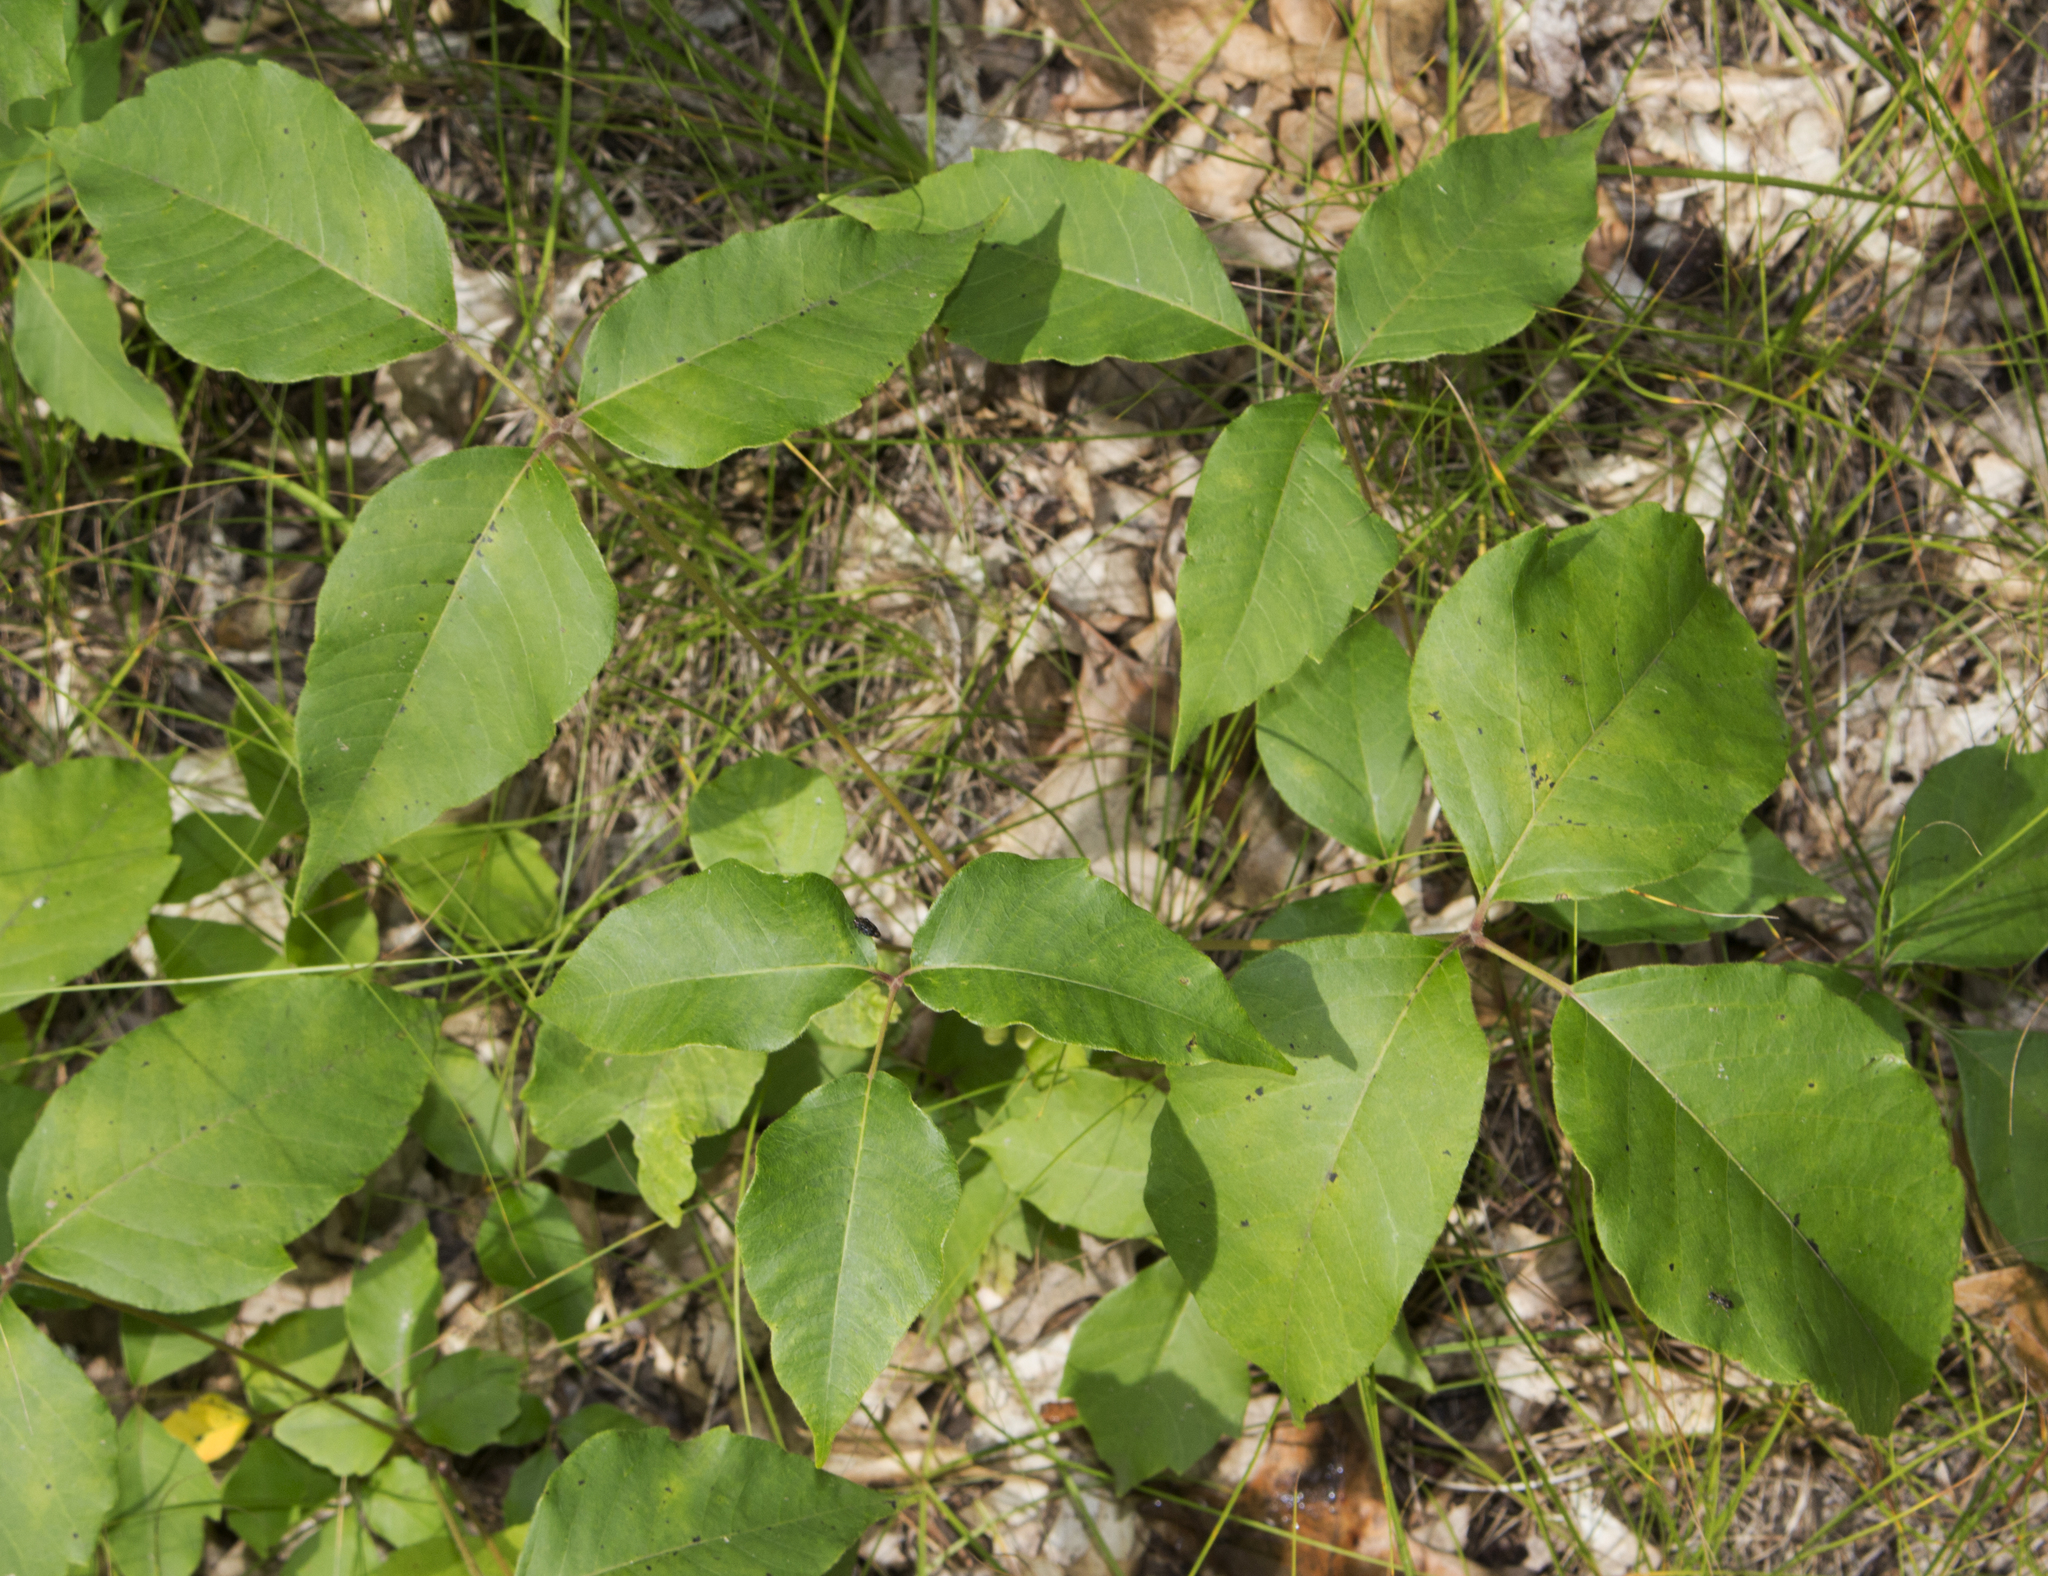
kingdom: Plantae
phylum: Tracheophyta
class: Magnoliopsida
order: Sapindales
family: Anacardiaceae
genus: Toxicodendron
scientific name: Toxicodendron rydbergii
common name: Rydberg's poison-ivy
